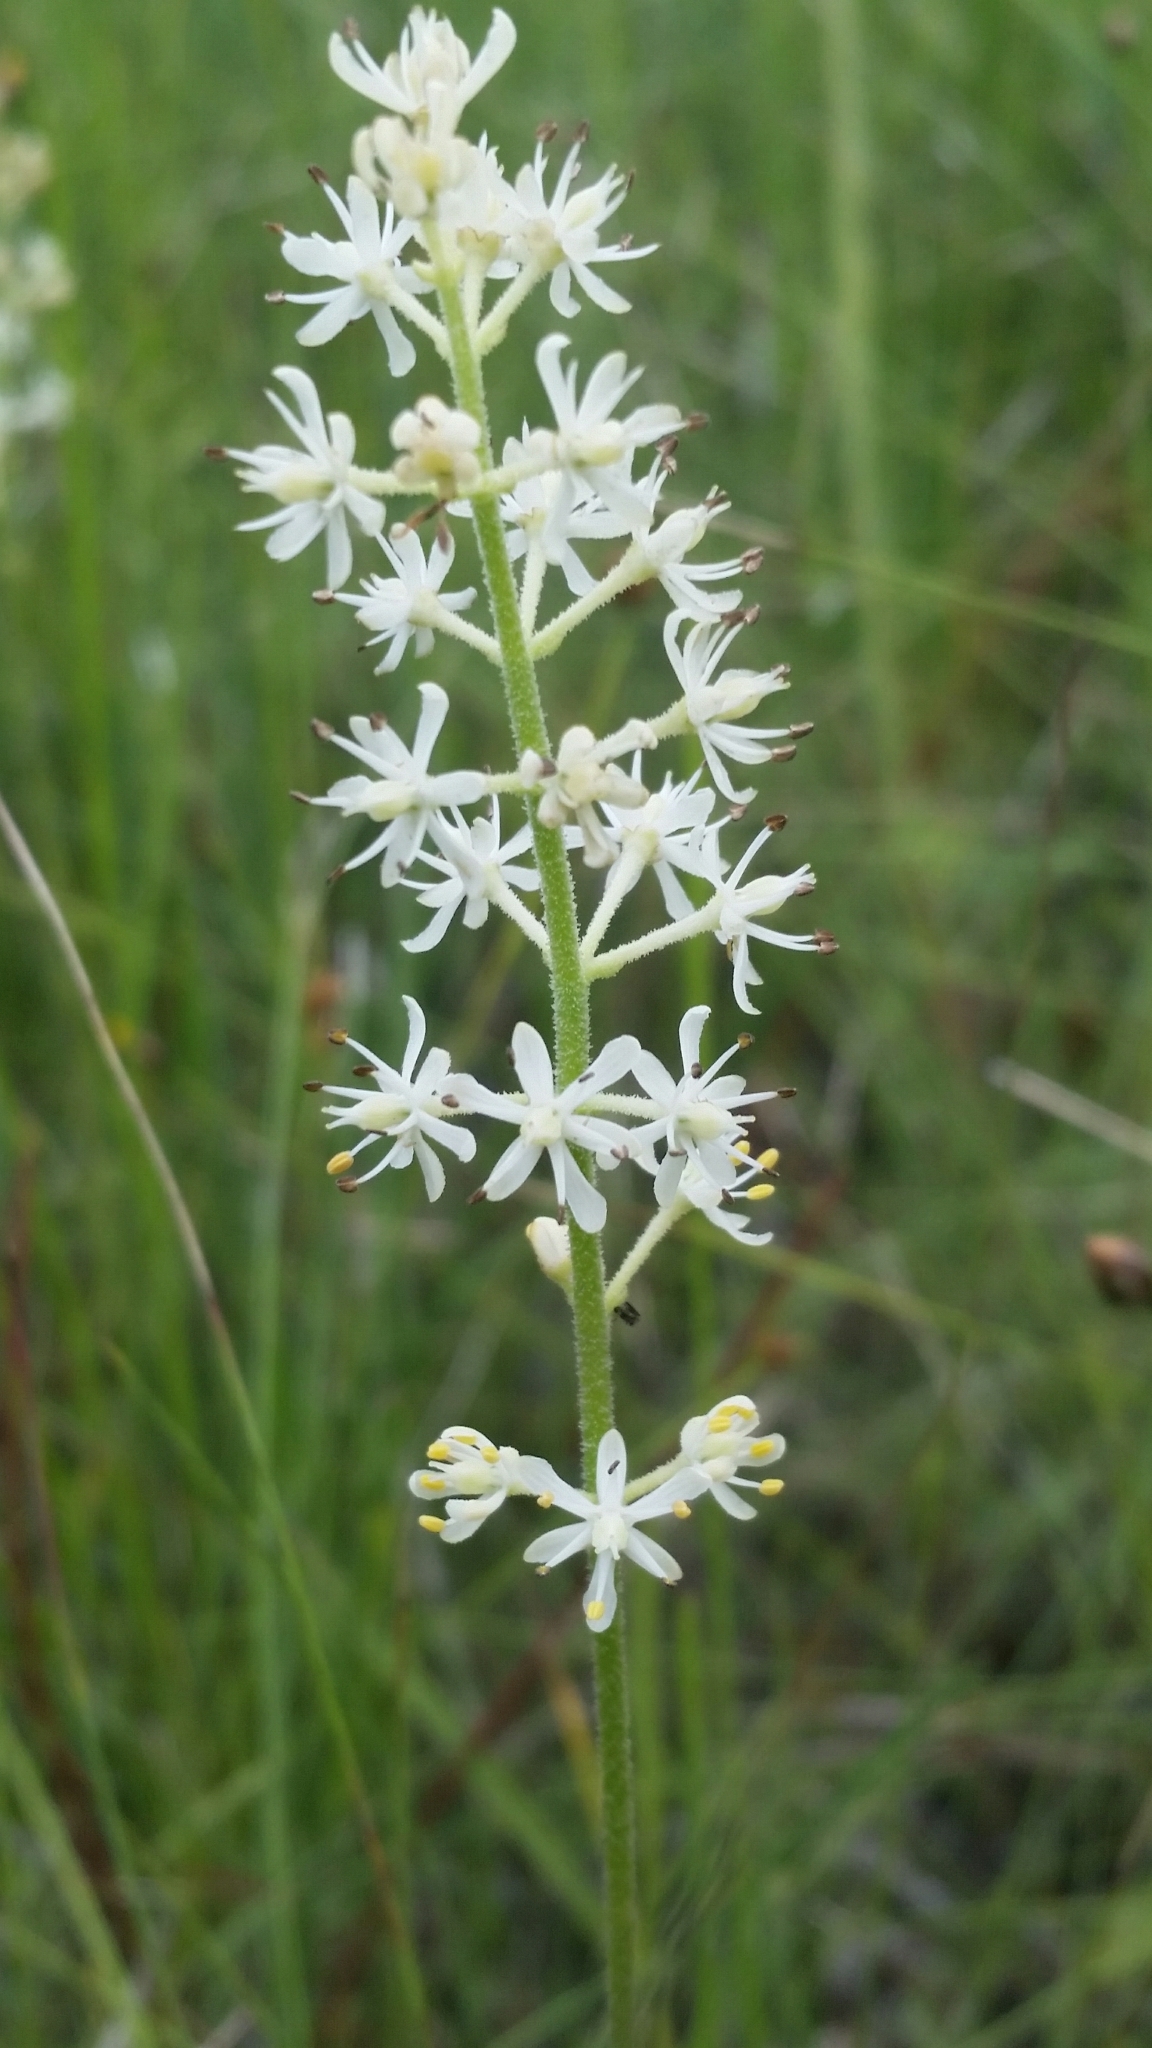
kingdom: Plantae
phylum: Tracheophyta
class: Liliopsida
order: Alismatales
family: Tofieldiaceae
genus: Triantha
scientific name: Triantha racemosa
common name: Coastal false asphodel
